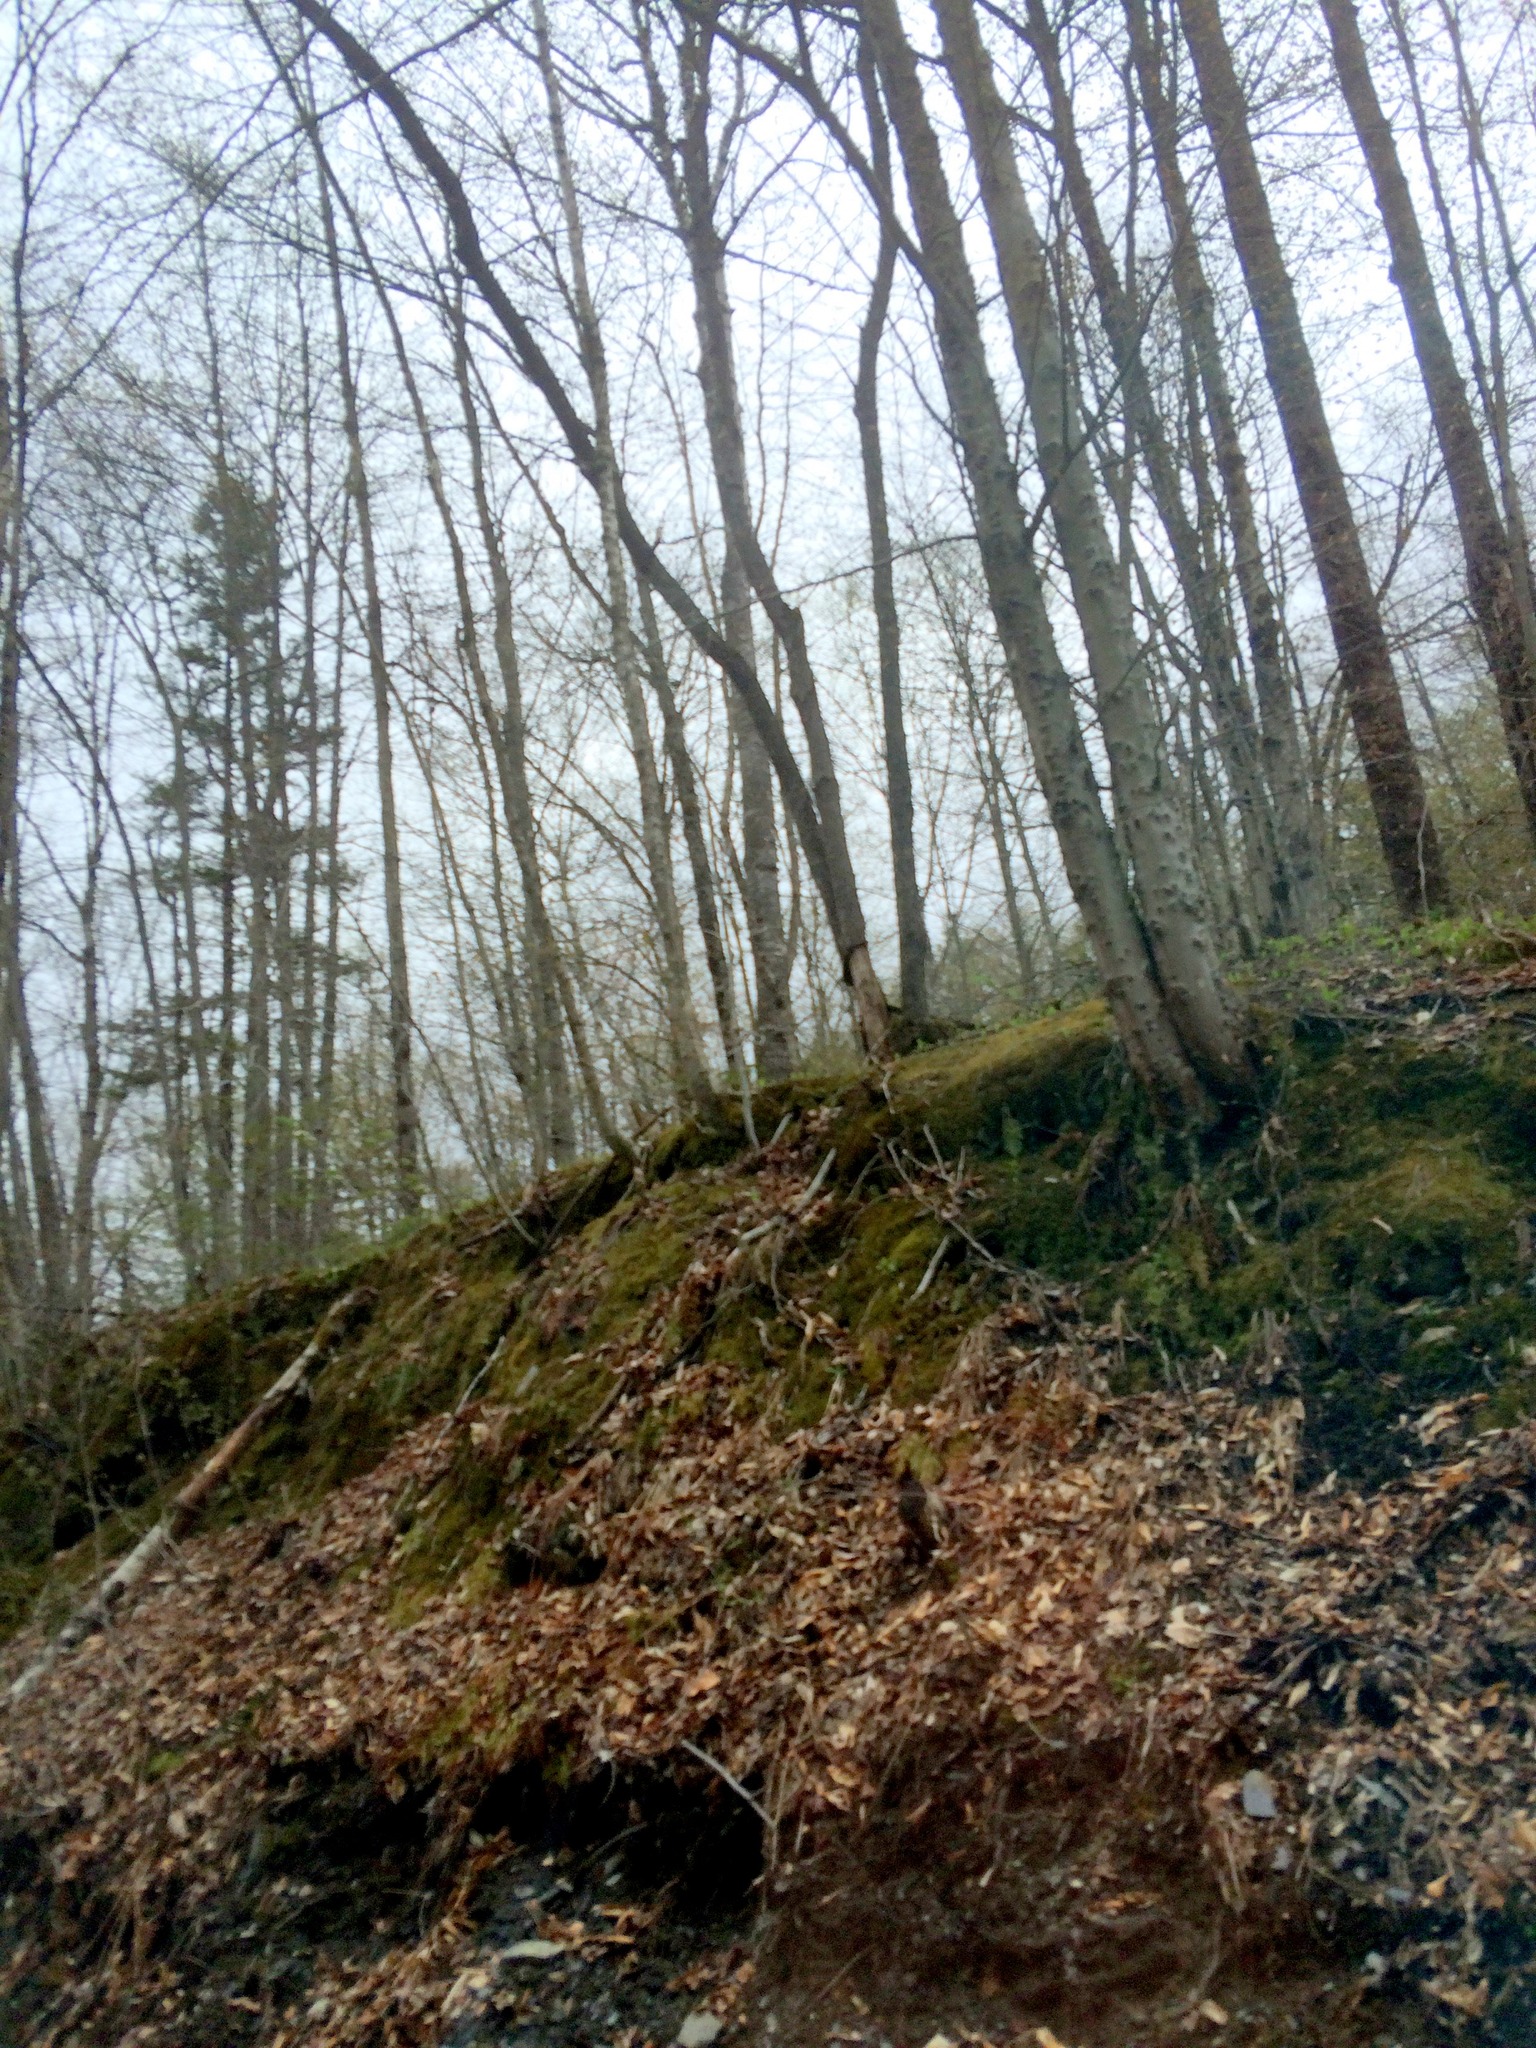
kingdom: Plantae
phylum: Tracheophyta
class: Magnoliopsida
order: Fagales
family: Fagaceae
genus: Fagus
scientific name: Fagus grandifolia
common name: American beech
